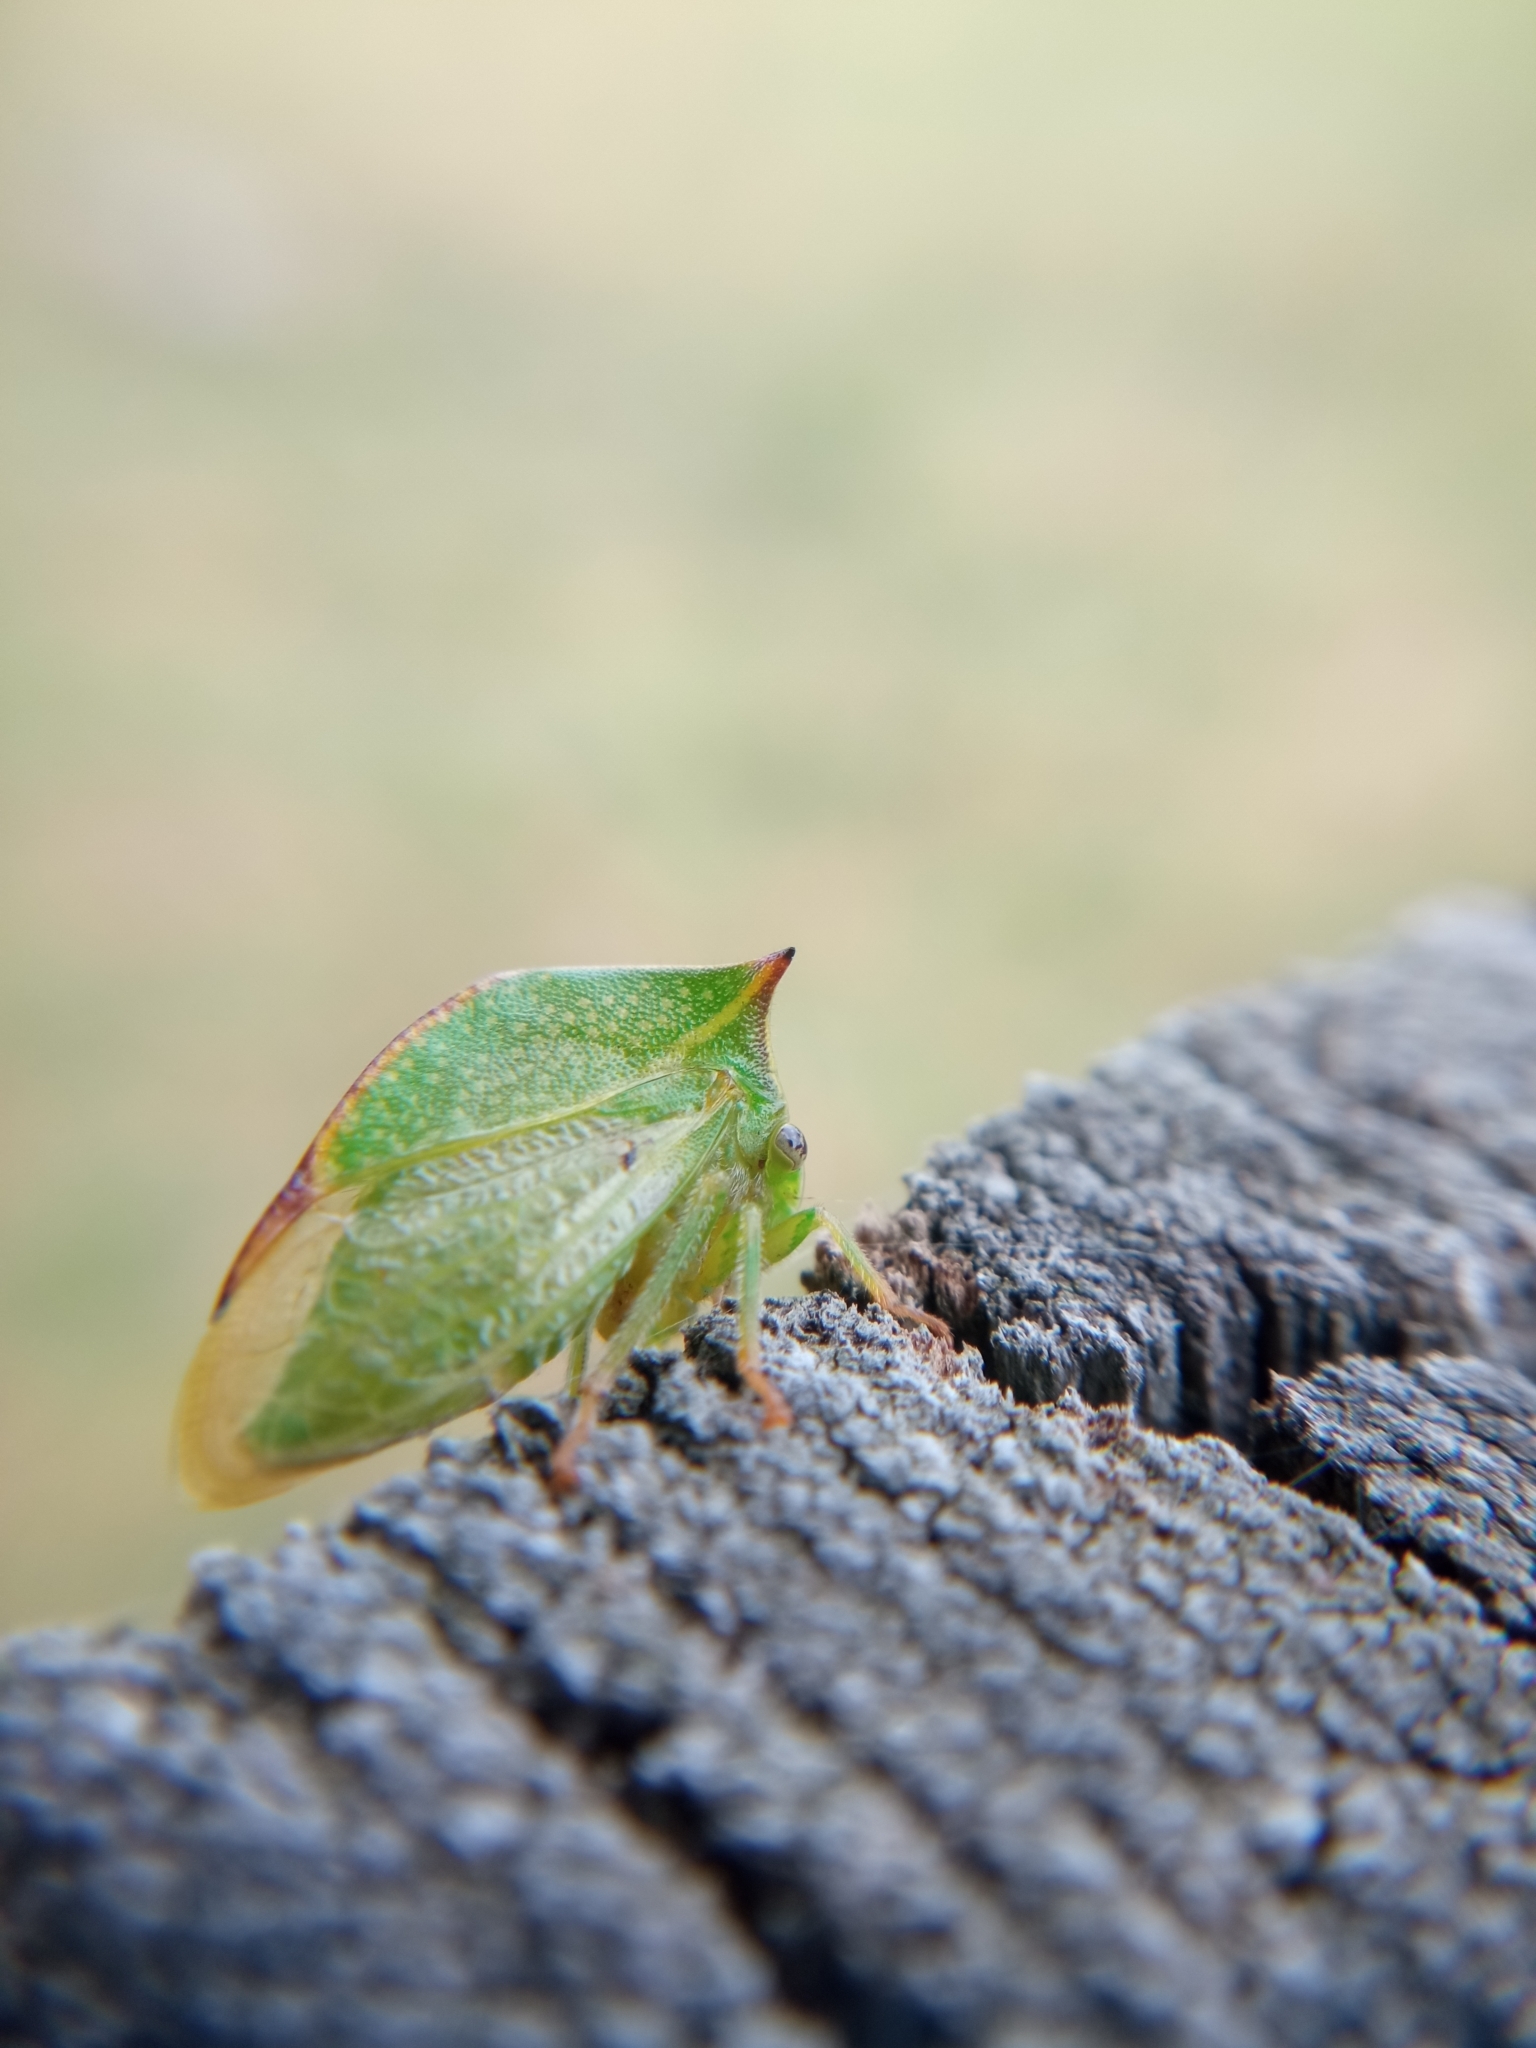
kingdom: Animalia
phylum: Arthropoda
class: Insecta
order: Hemiptera
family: Membracidae
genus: Stictocephala
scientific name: Stictocephala bisonia
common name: American buffalo treehopper
